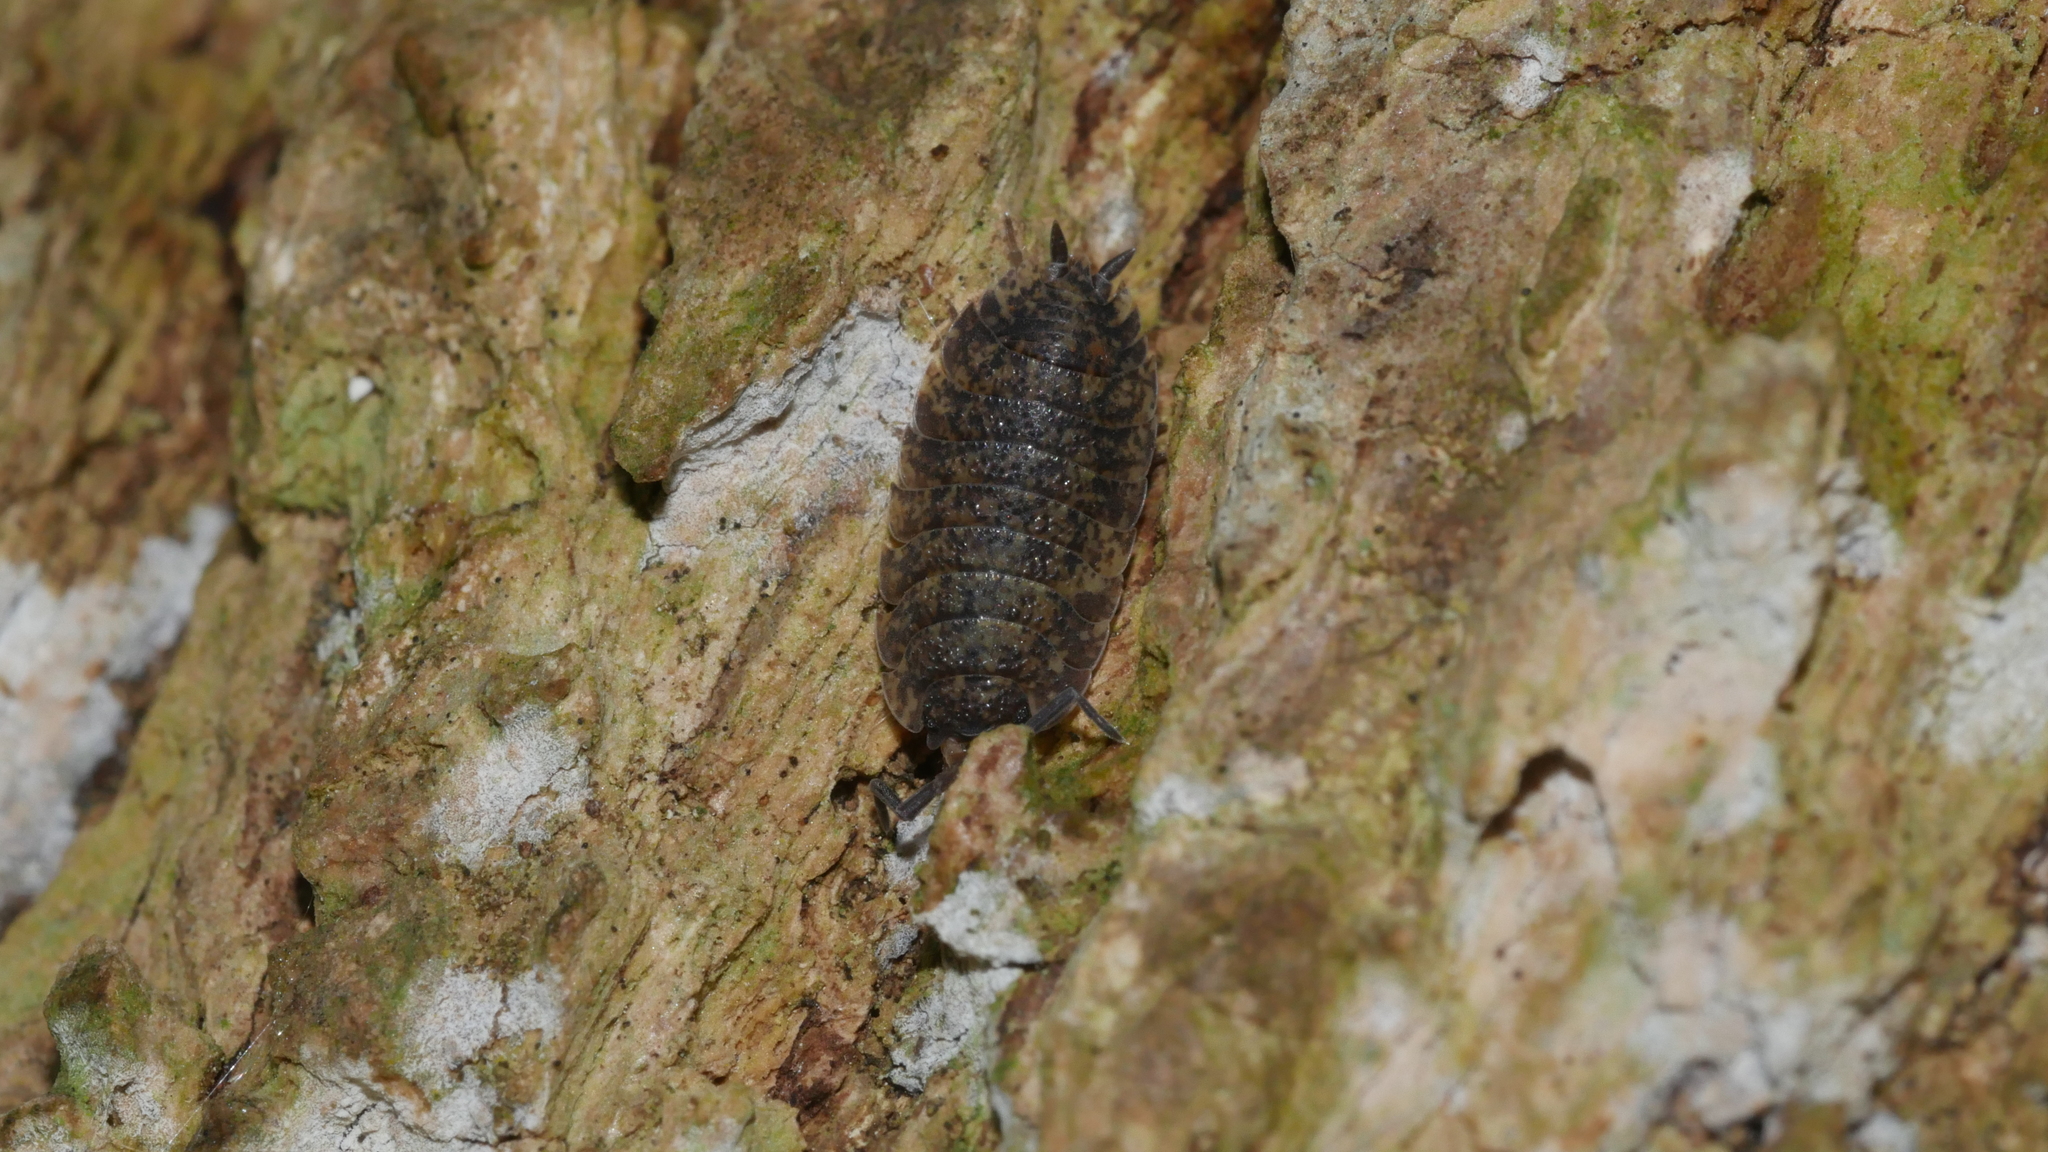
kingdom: Animalia
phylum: Arthropoda
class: Malacostraca
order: Isopoda
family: Porcellionidae
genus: Porcellio
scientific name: Porcellio scaber
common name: Common rough woodlouse
